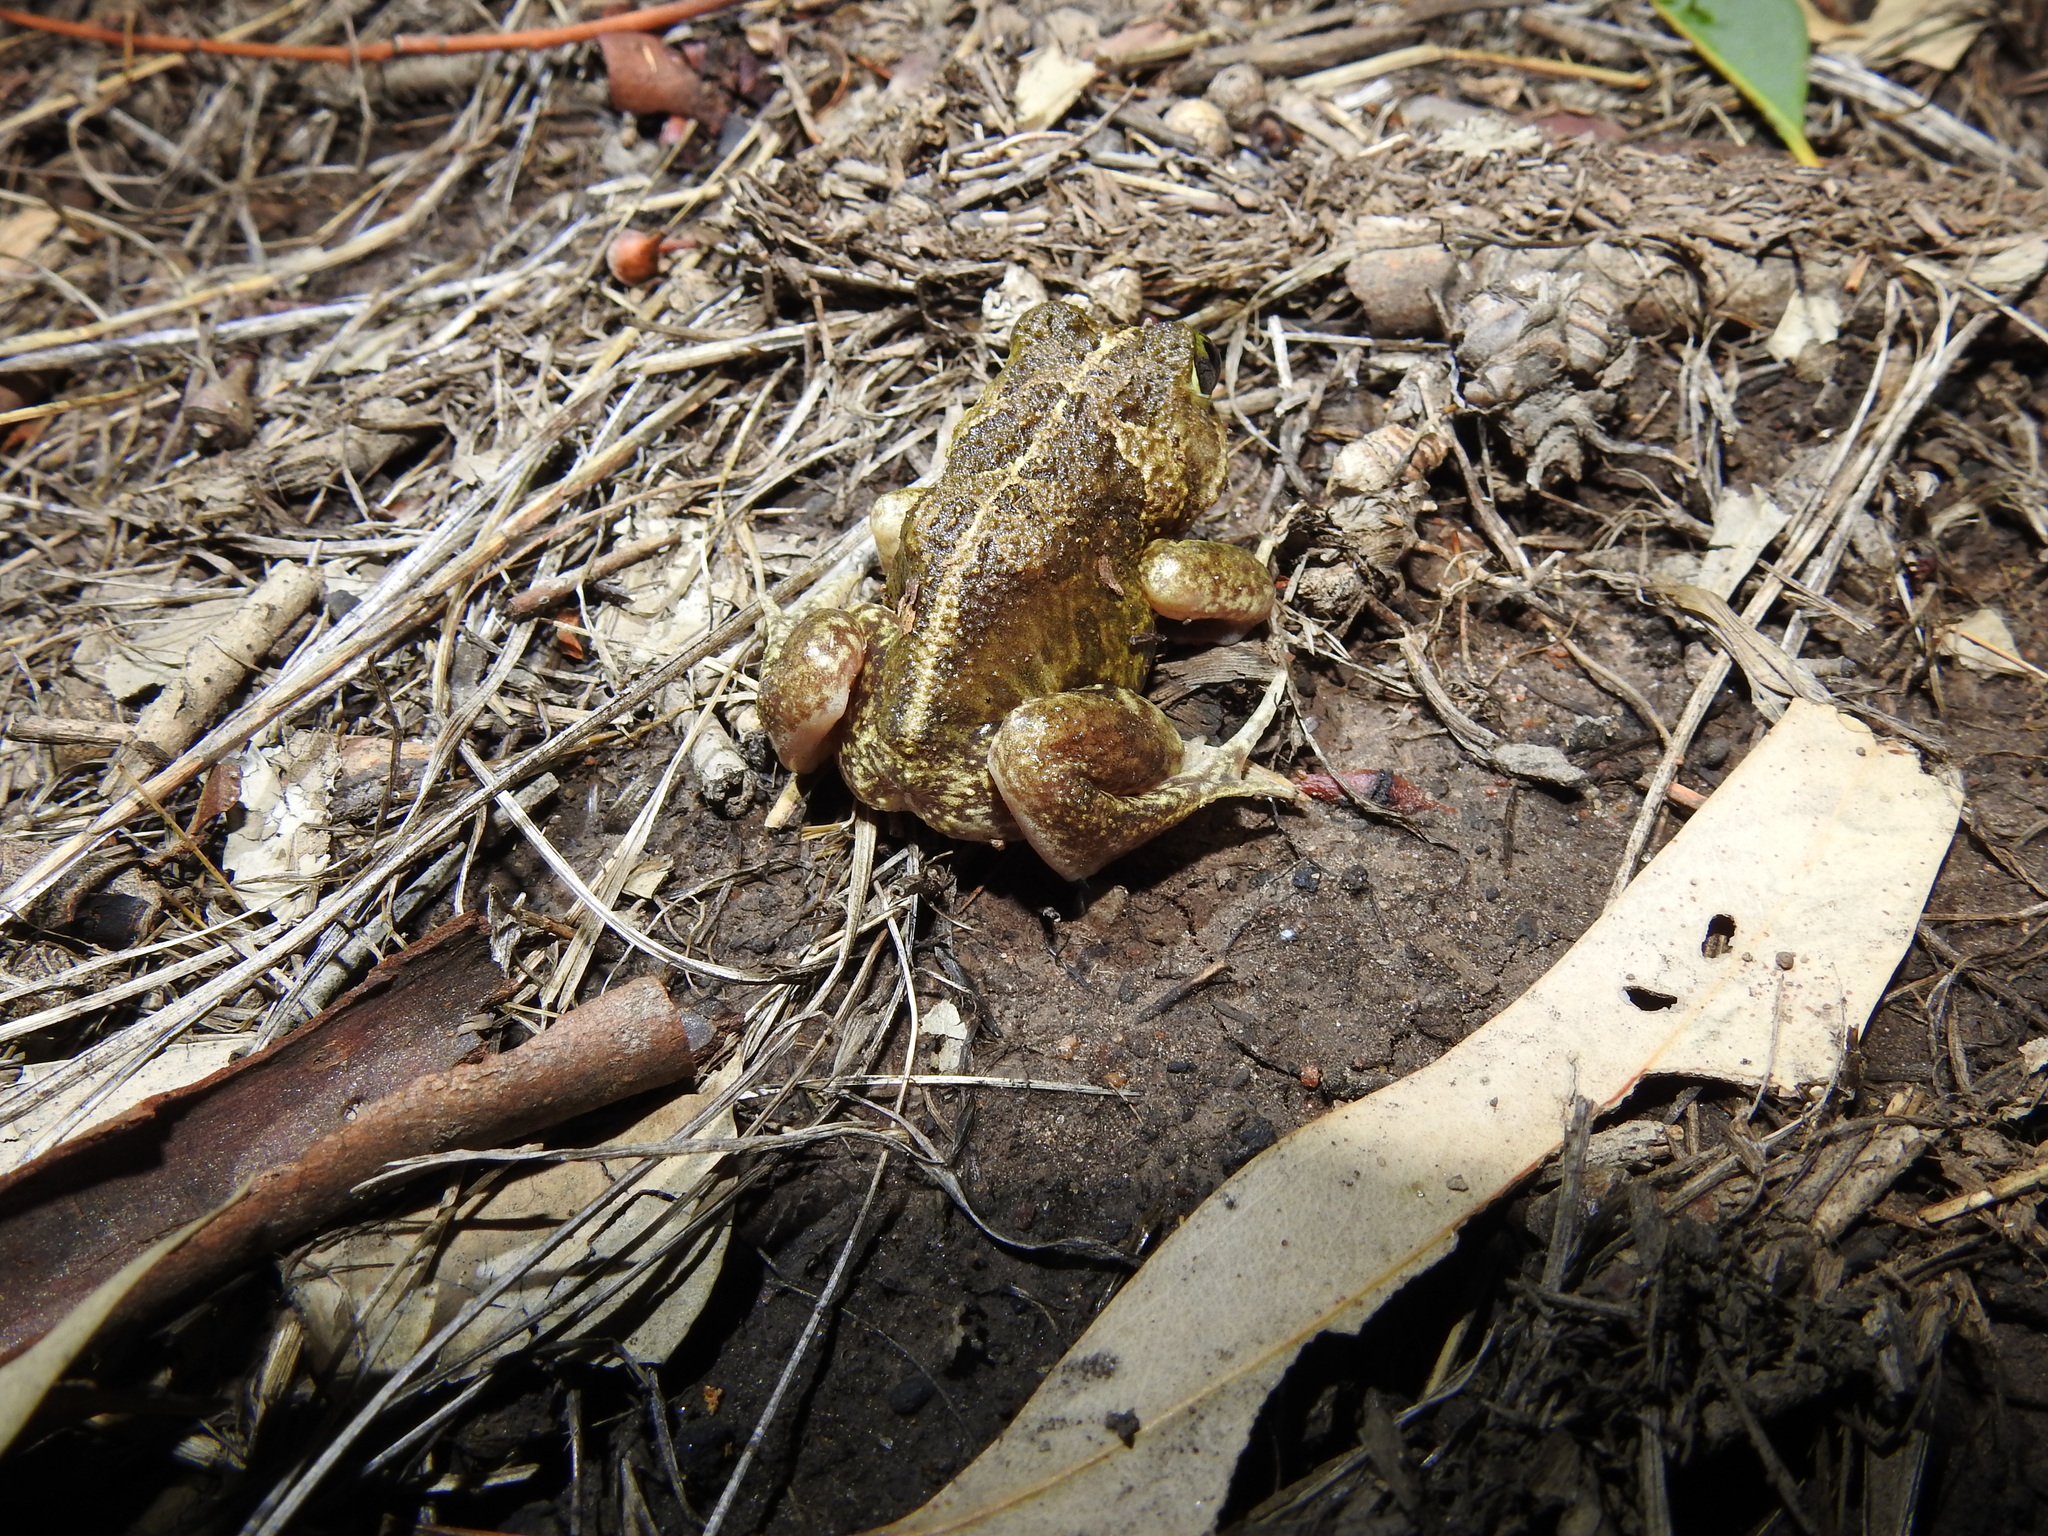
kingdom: Animalia
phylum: Chordata
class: Amphibia
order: Anura
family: Limnodynastidae
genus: Neobatrachus
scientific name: Neobatrachus sudelli
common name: Common spadefoot toad
